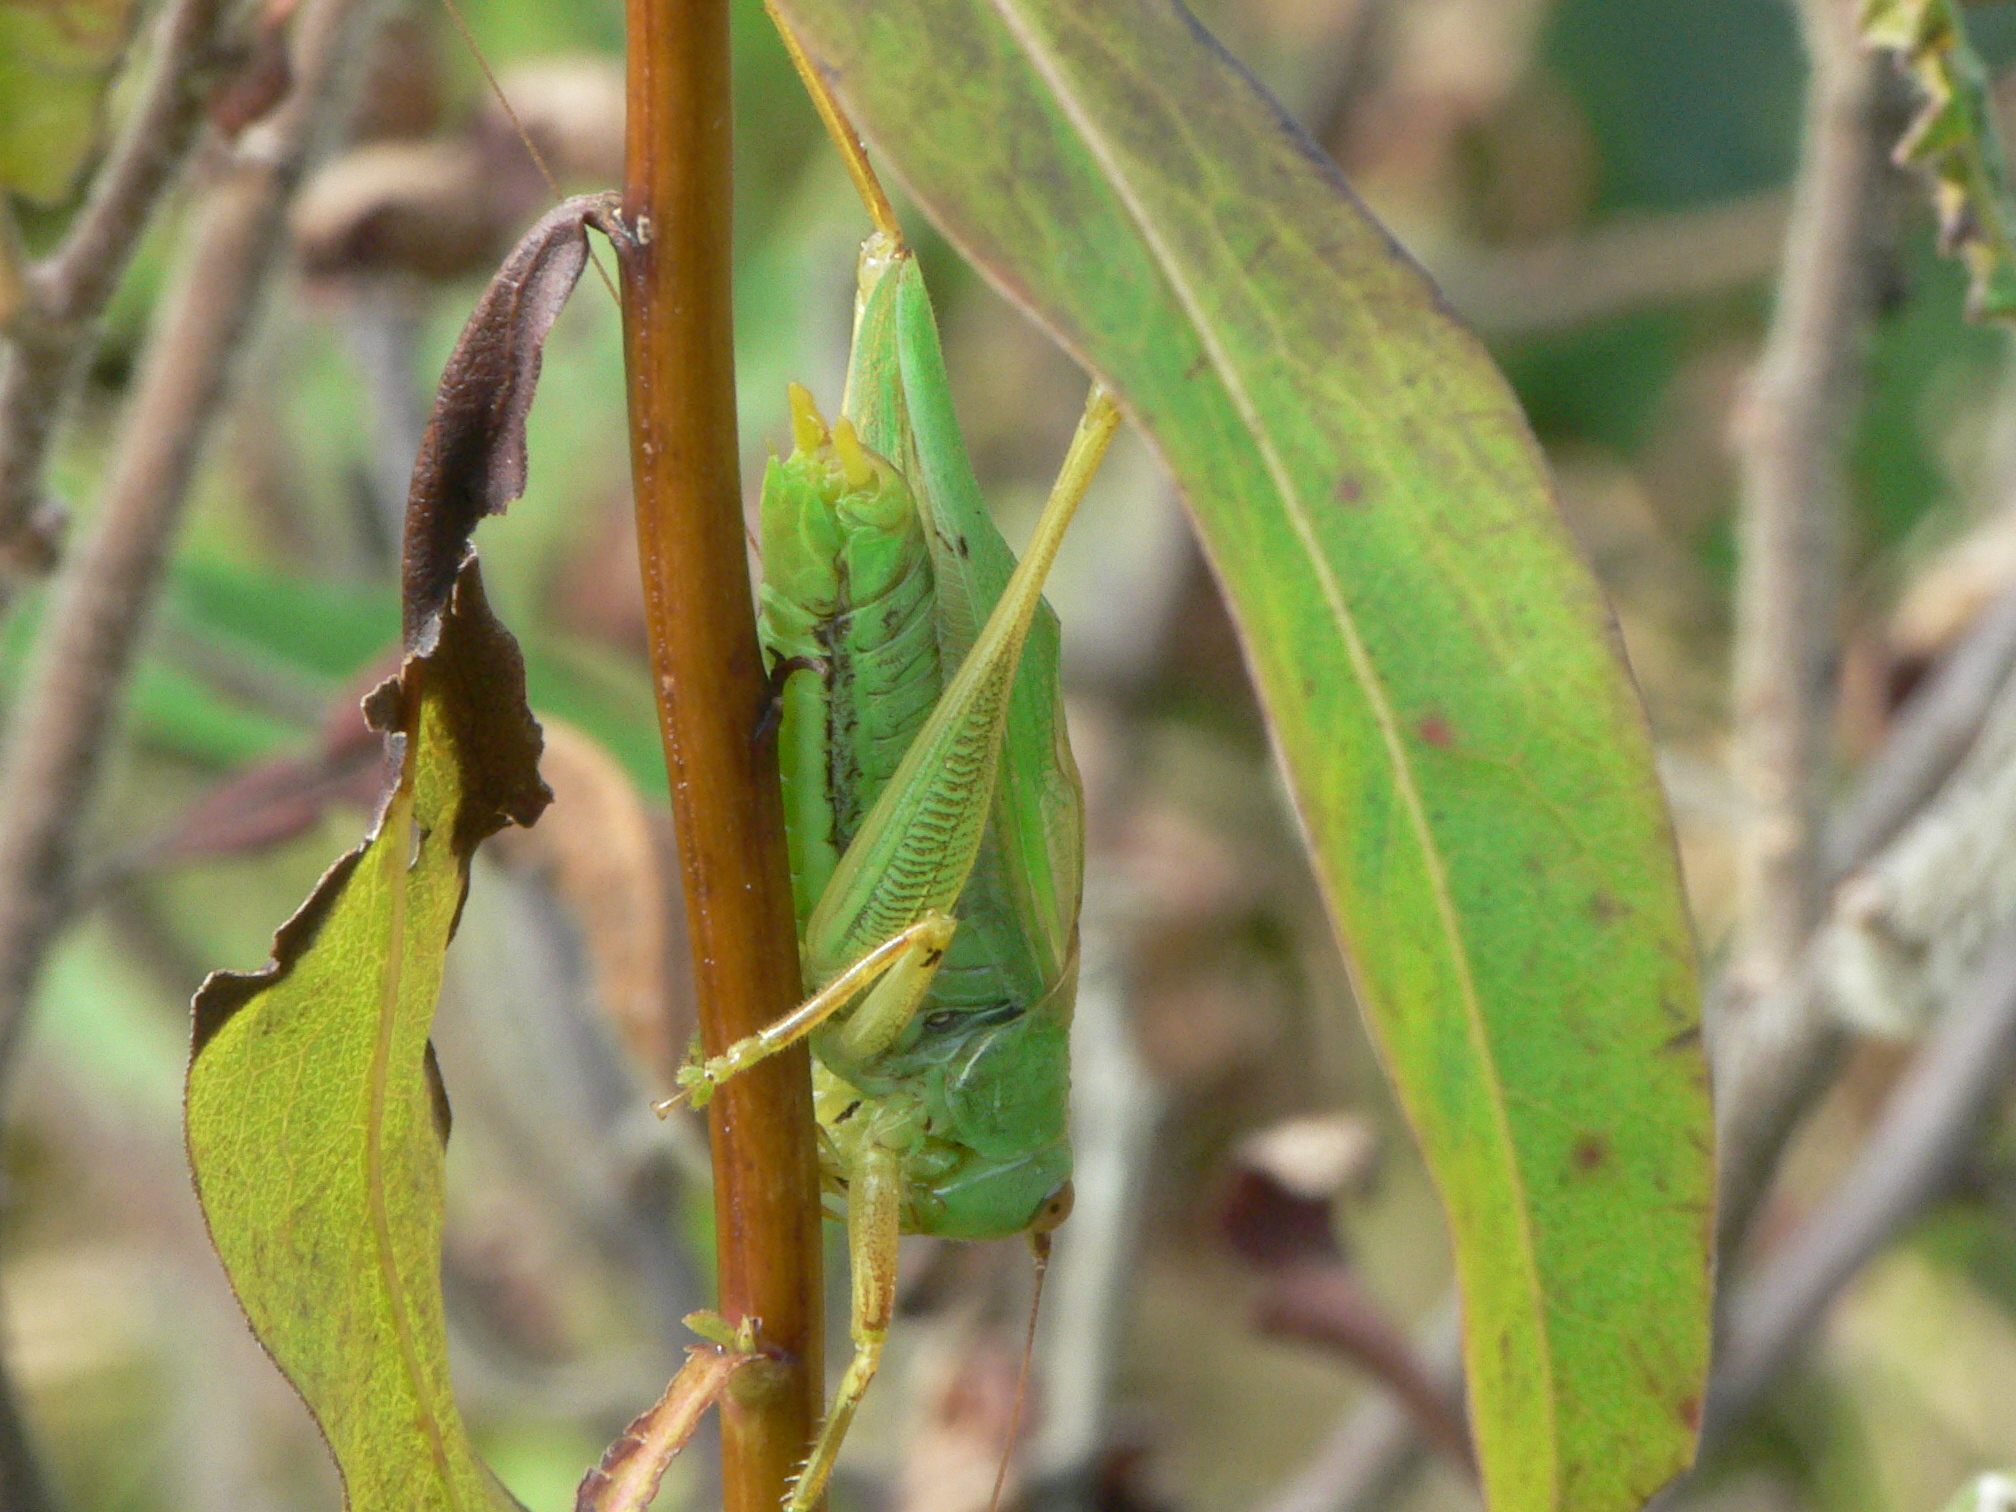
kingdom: Animalia
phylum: Arthropoda
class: Insecta
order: Orthoptera
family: Tettigoniidae
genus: Orchelimum
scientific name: Orchelimum vulgare
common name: Common meadow katydid
